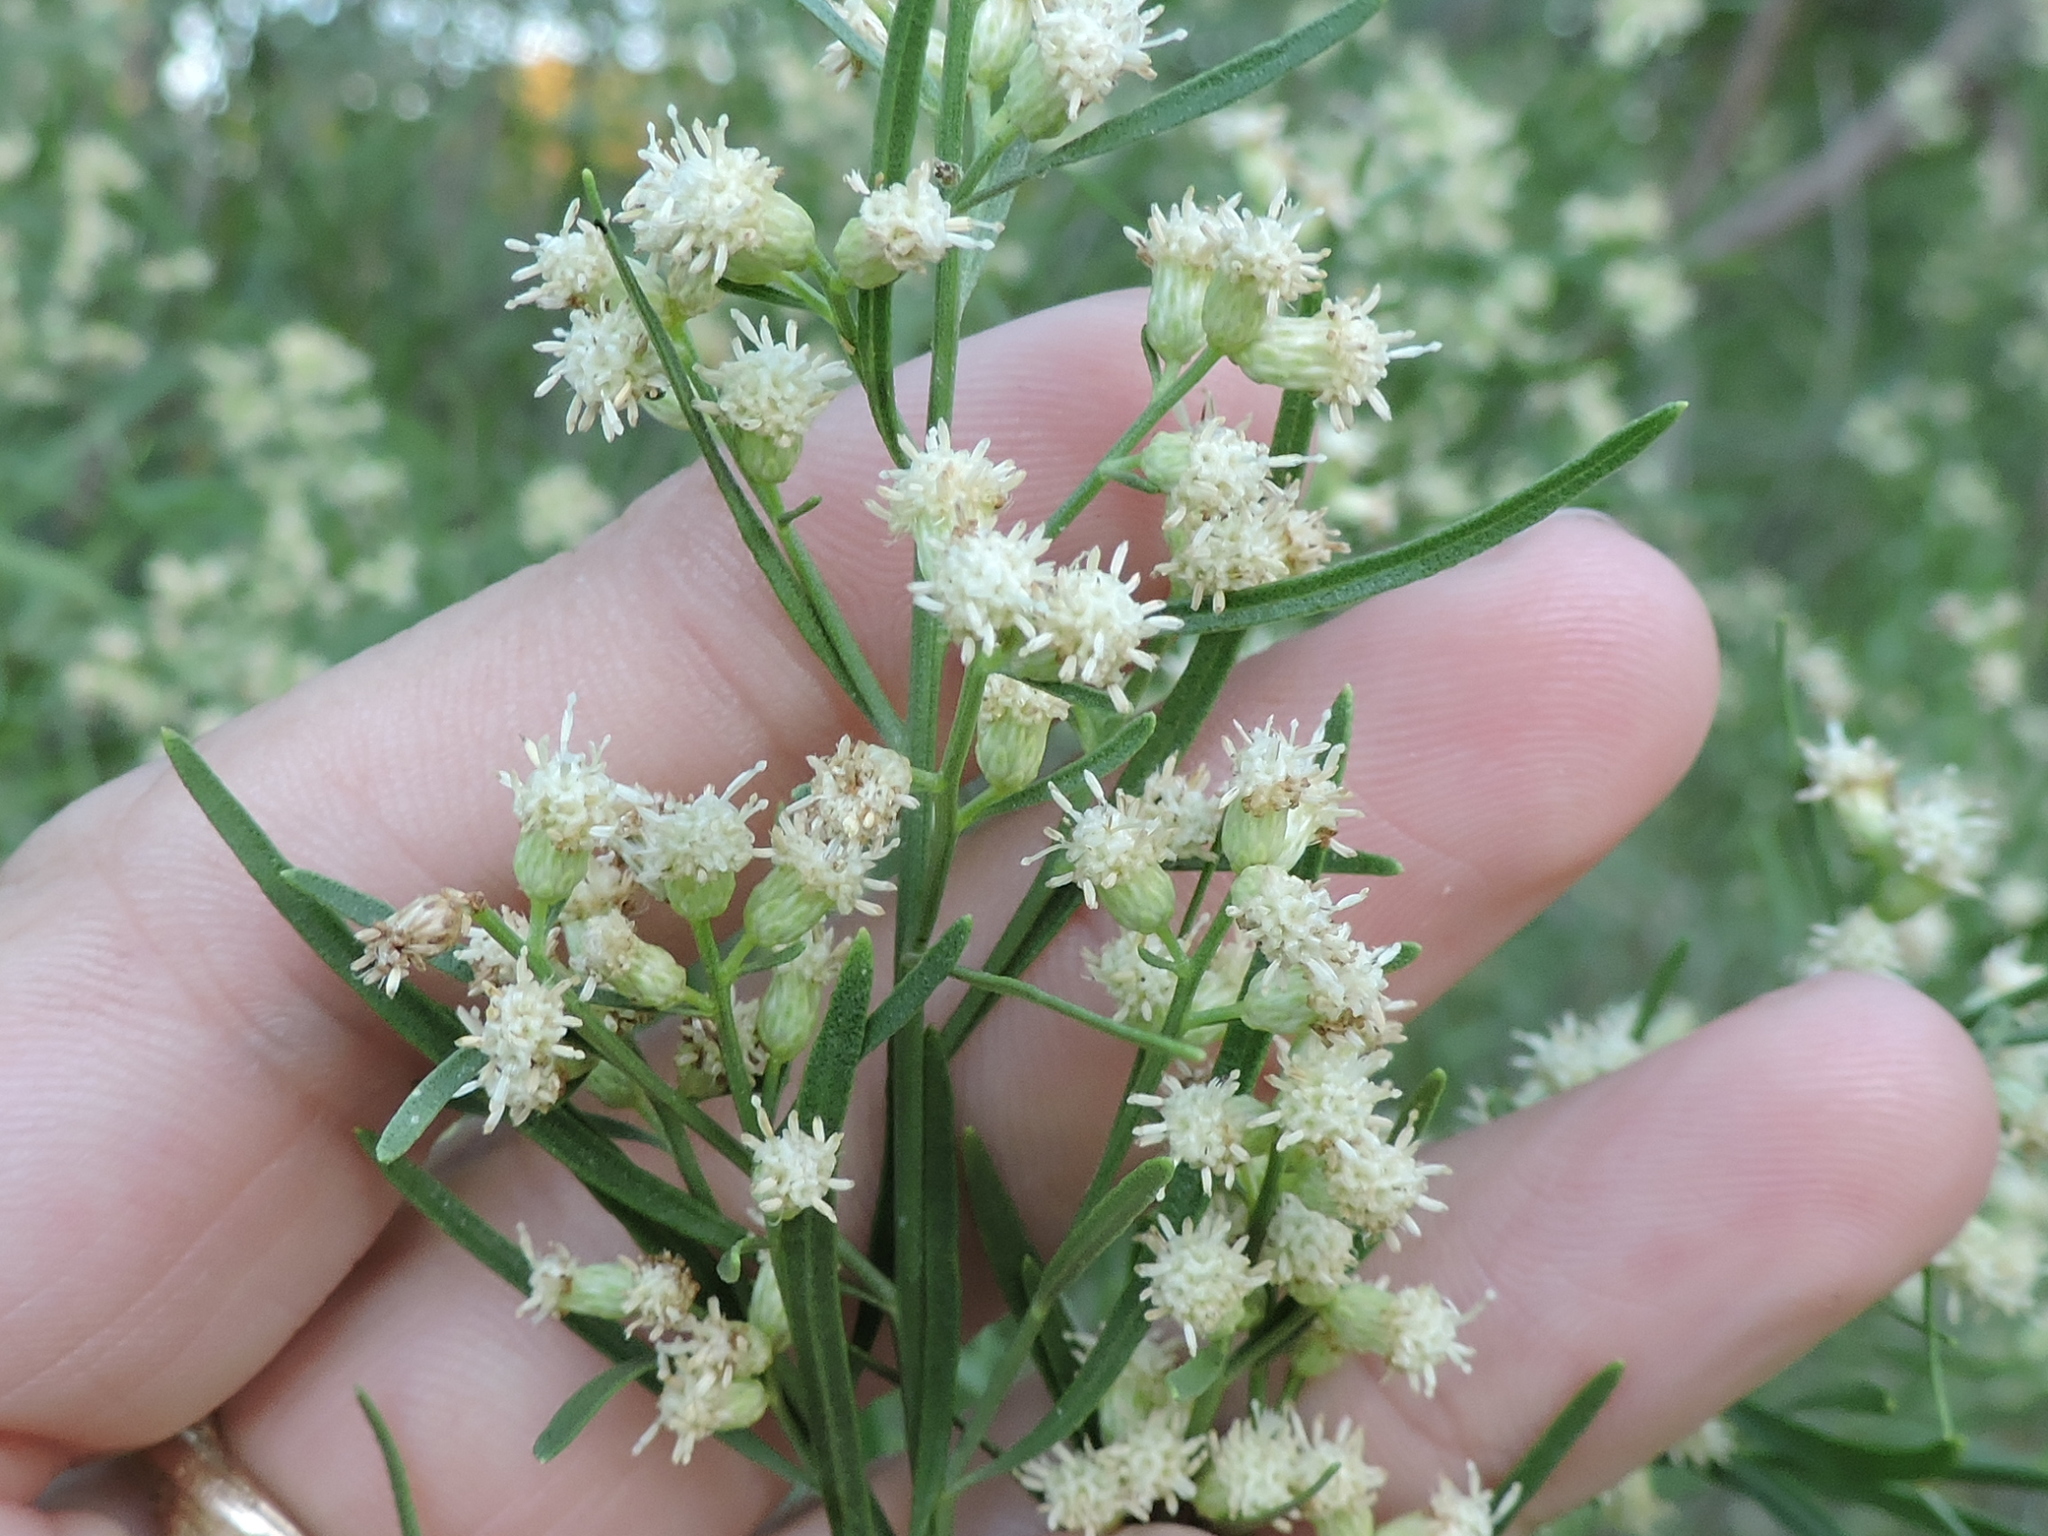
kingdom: Plantae
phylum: Tracheophyta
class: Magnoliopsida
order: Asterales
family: Asteraceae
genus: Baccharis
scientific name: Baccharis neglecta
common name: Roosevelt-weed
